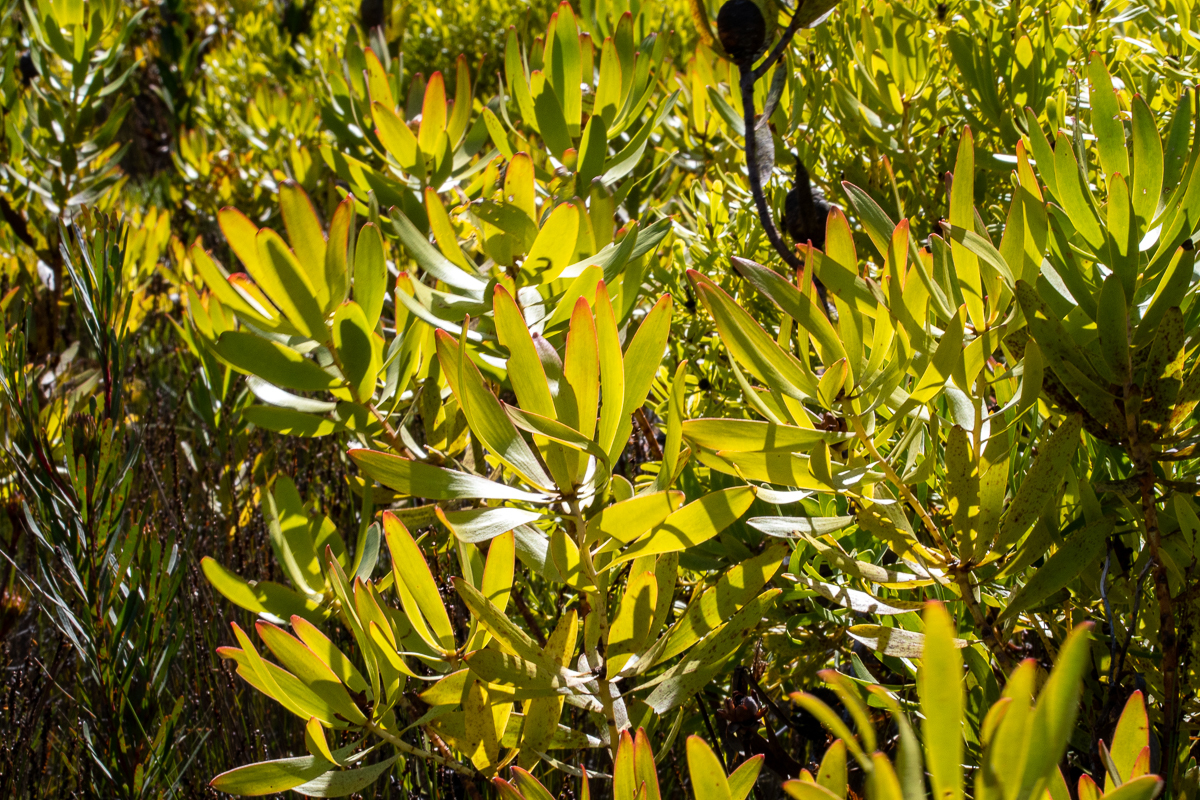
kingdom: Plantae
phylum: Tracheophyta
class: Magnoliopsida
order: Proteales
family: Proteaceae
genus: Leucadendron
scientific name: Leucadendron microcephalum
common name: Oilbract conebush
